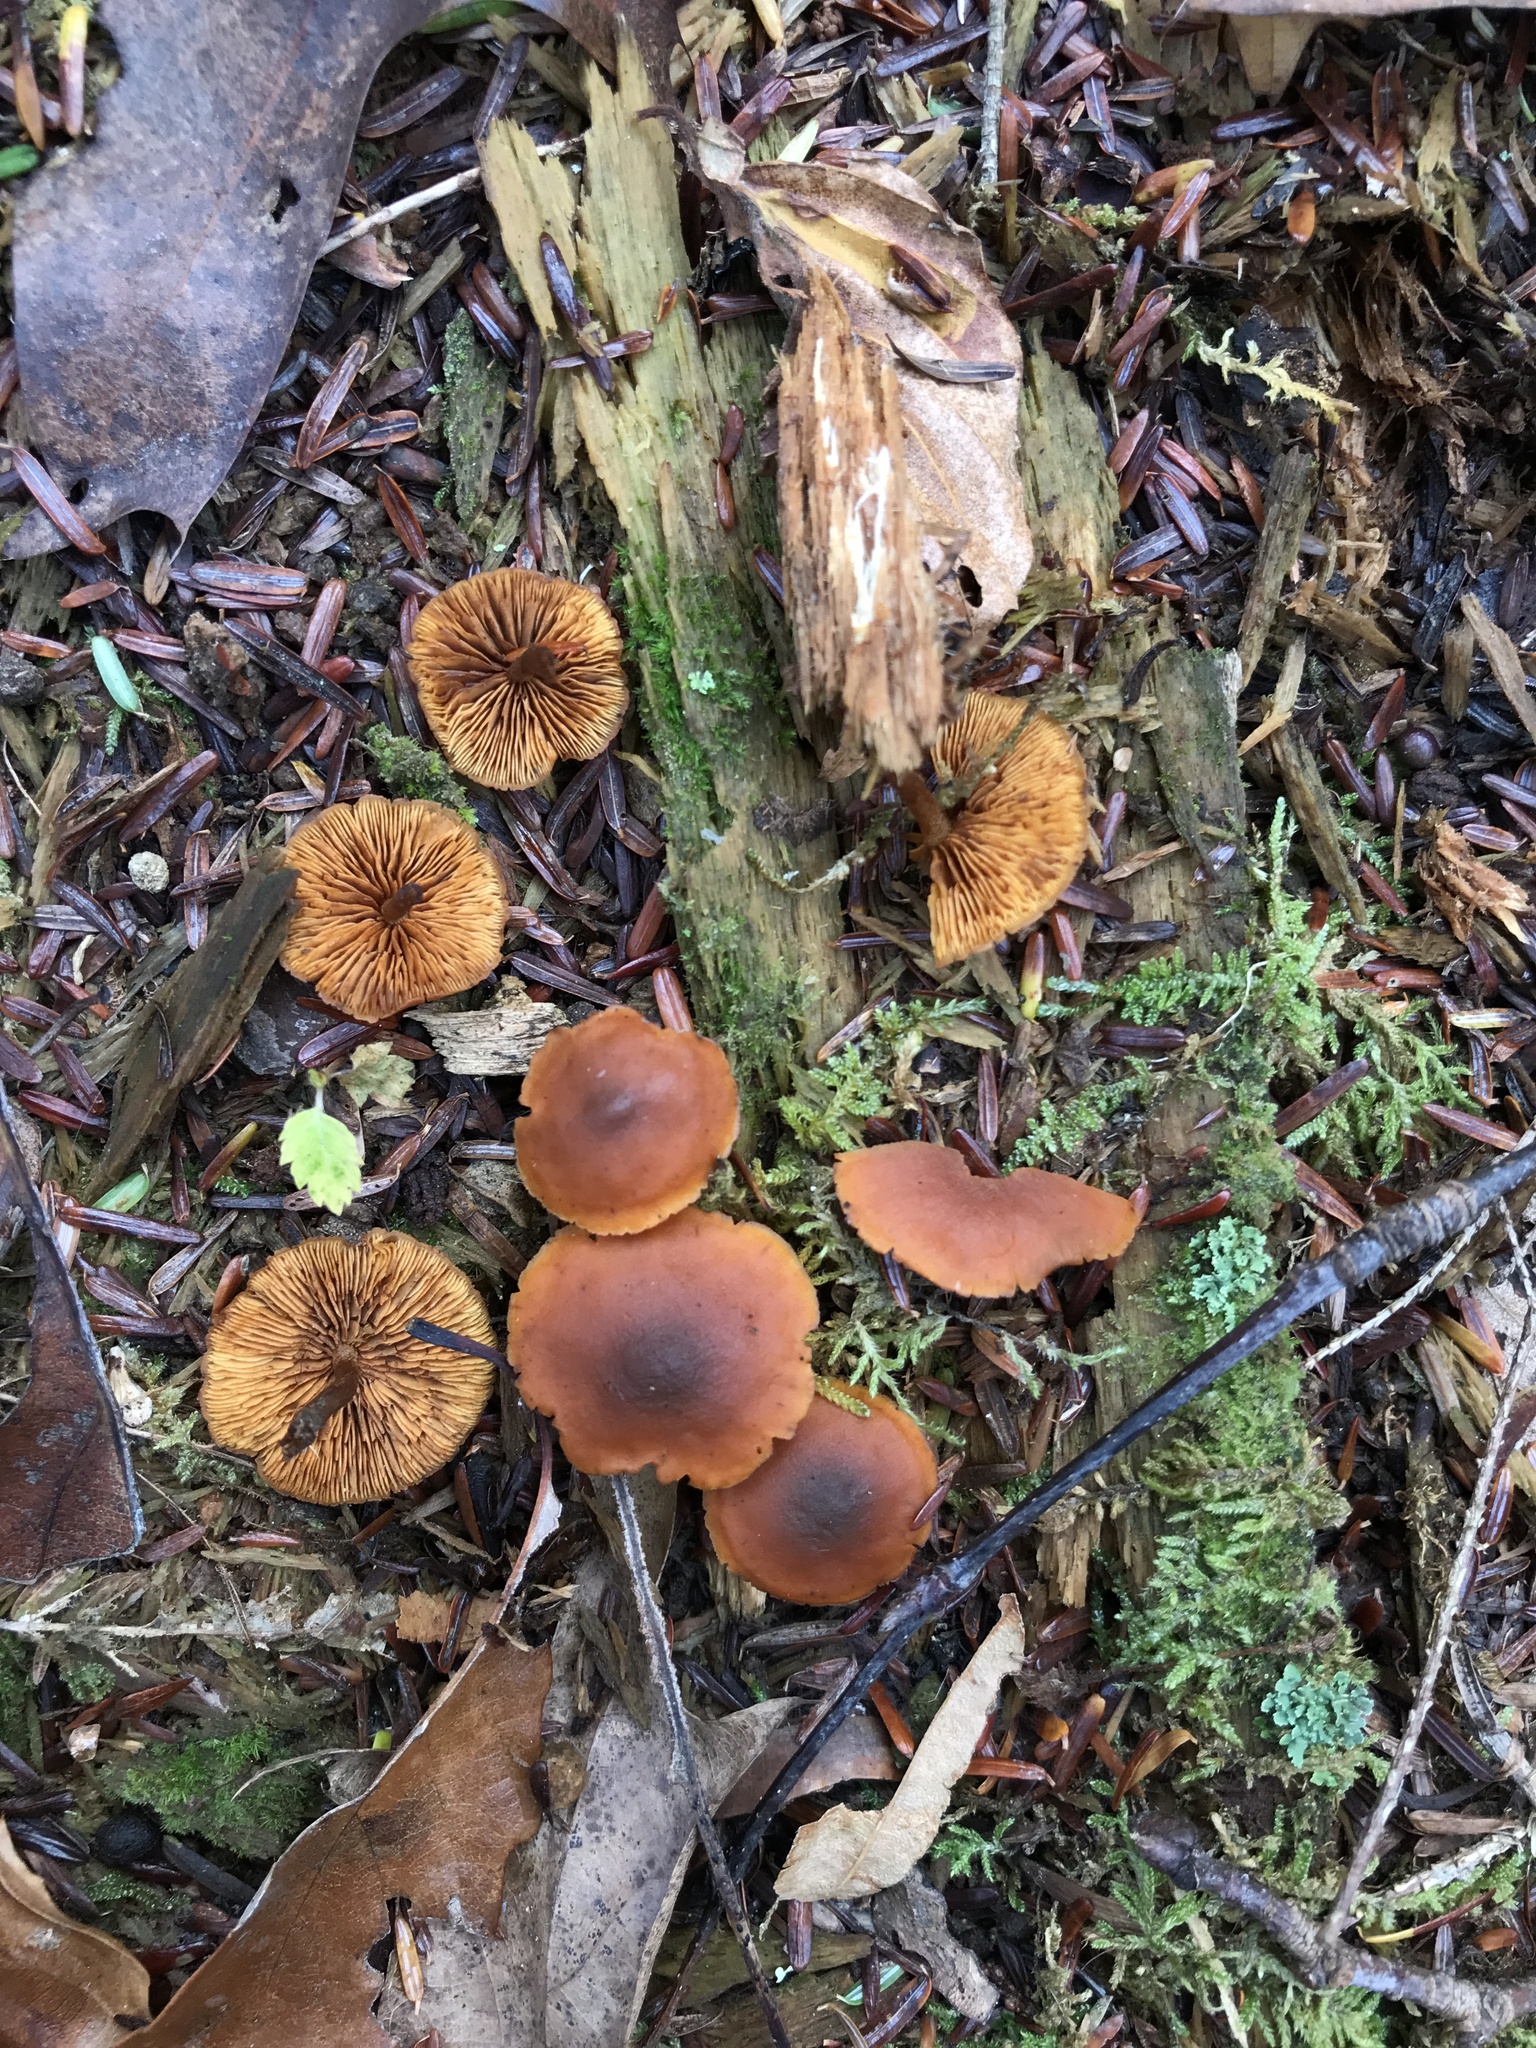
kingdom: Fungi
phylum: Basidiomycota
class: Agaricomycetes
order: Agaricales
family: Hymenogastraceae
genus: Galerina
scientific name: Galerina marginata
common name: Funeral bell
